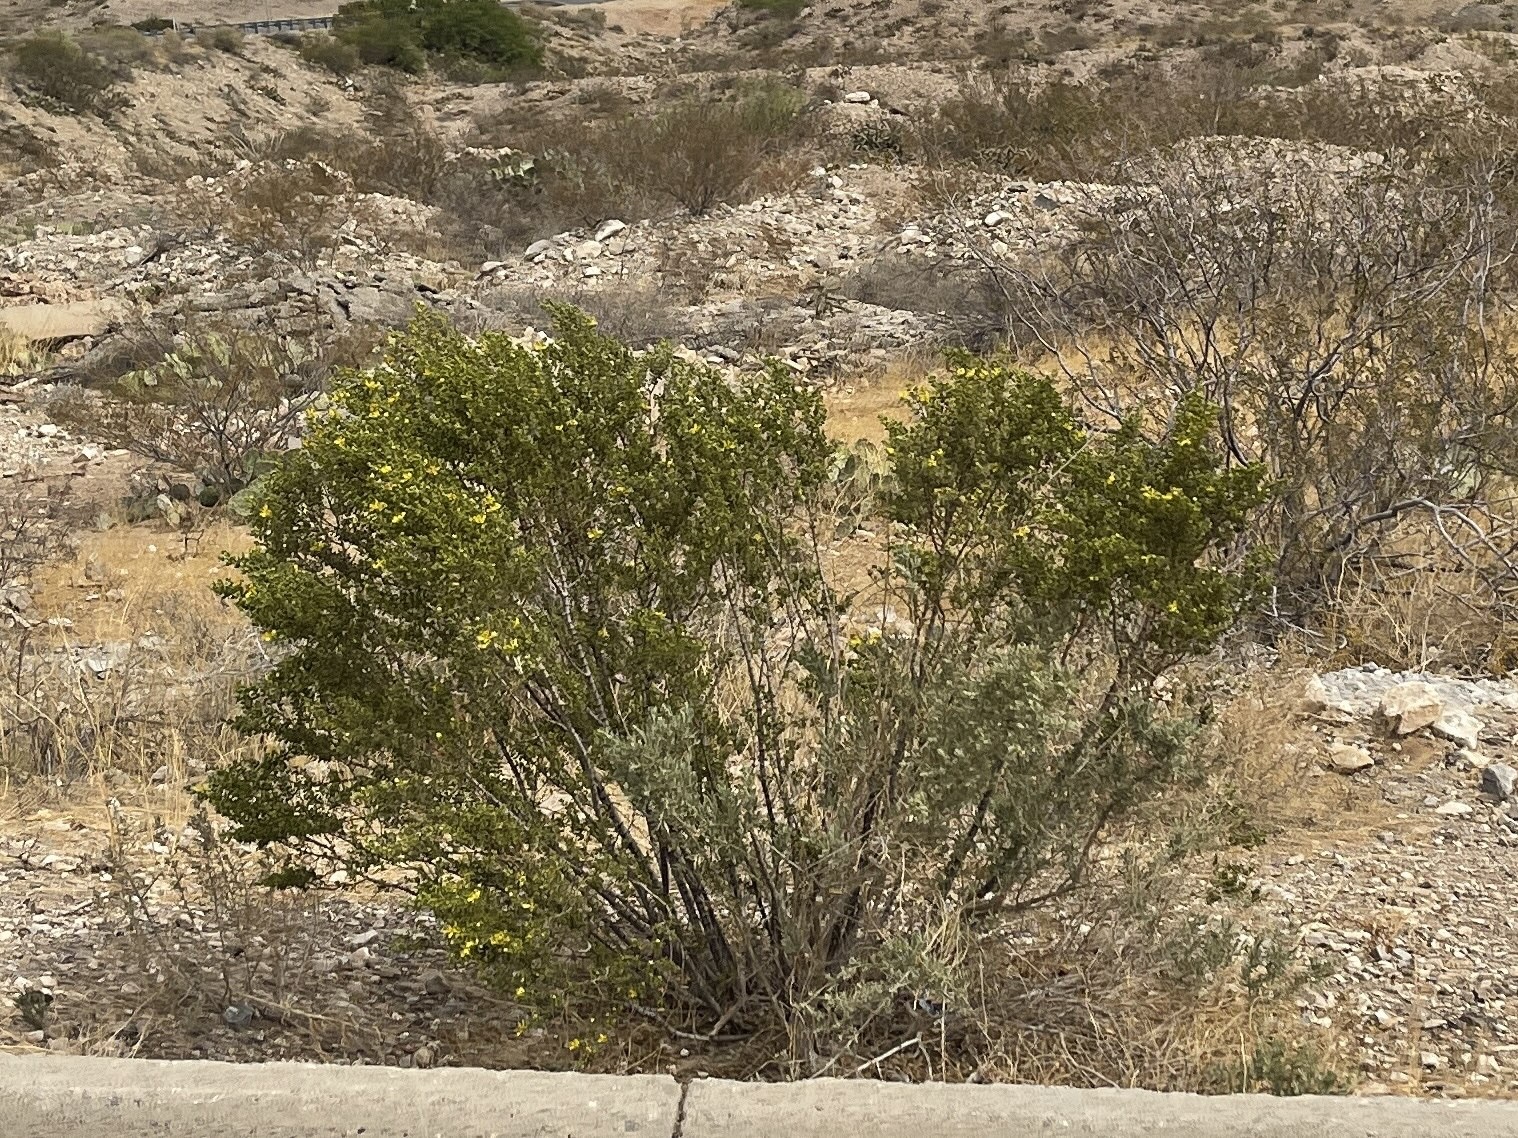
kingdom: Plantae
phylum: Tracheophyta
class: Magnoliopsida
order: Zygophyllales
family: Zygophyllaceae
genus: Larrea
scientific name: Larrea tridentata
